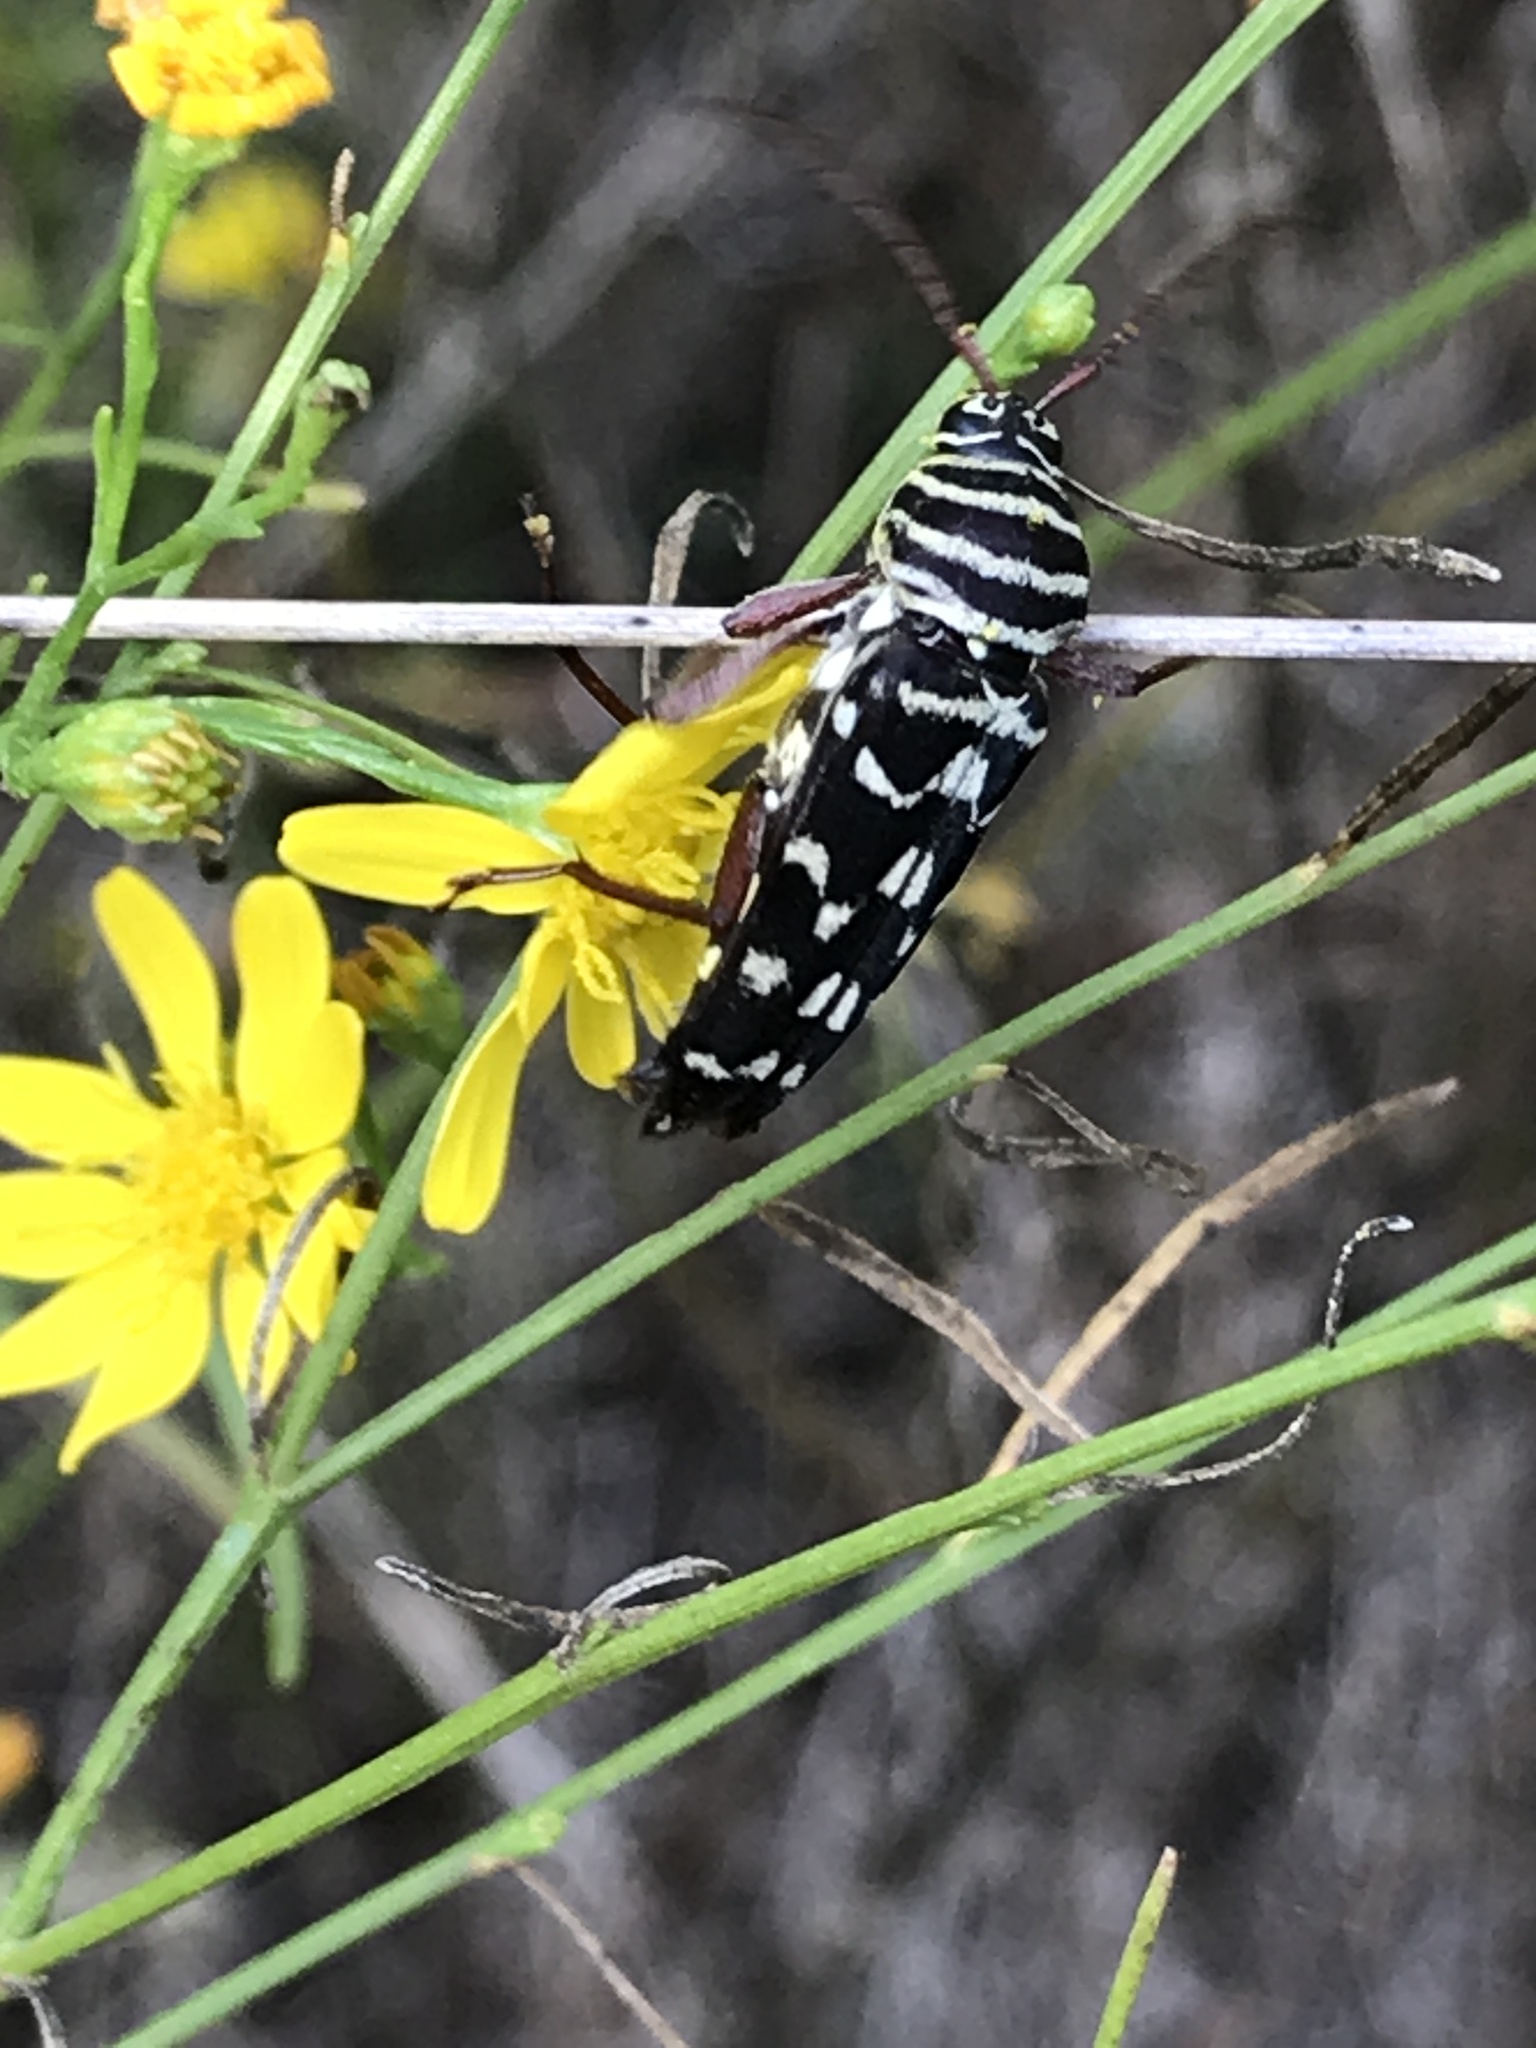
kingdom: Animalia
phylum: Arthropoda
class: Insecta
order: Coleoptera
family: Cerambycidae
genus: Placosternus
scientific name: Placosternus difficilis
